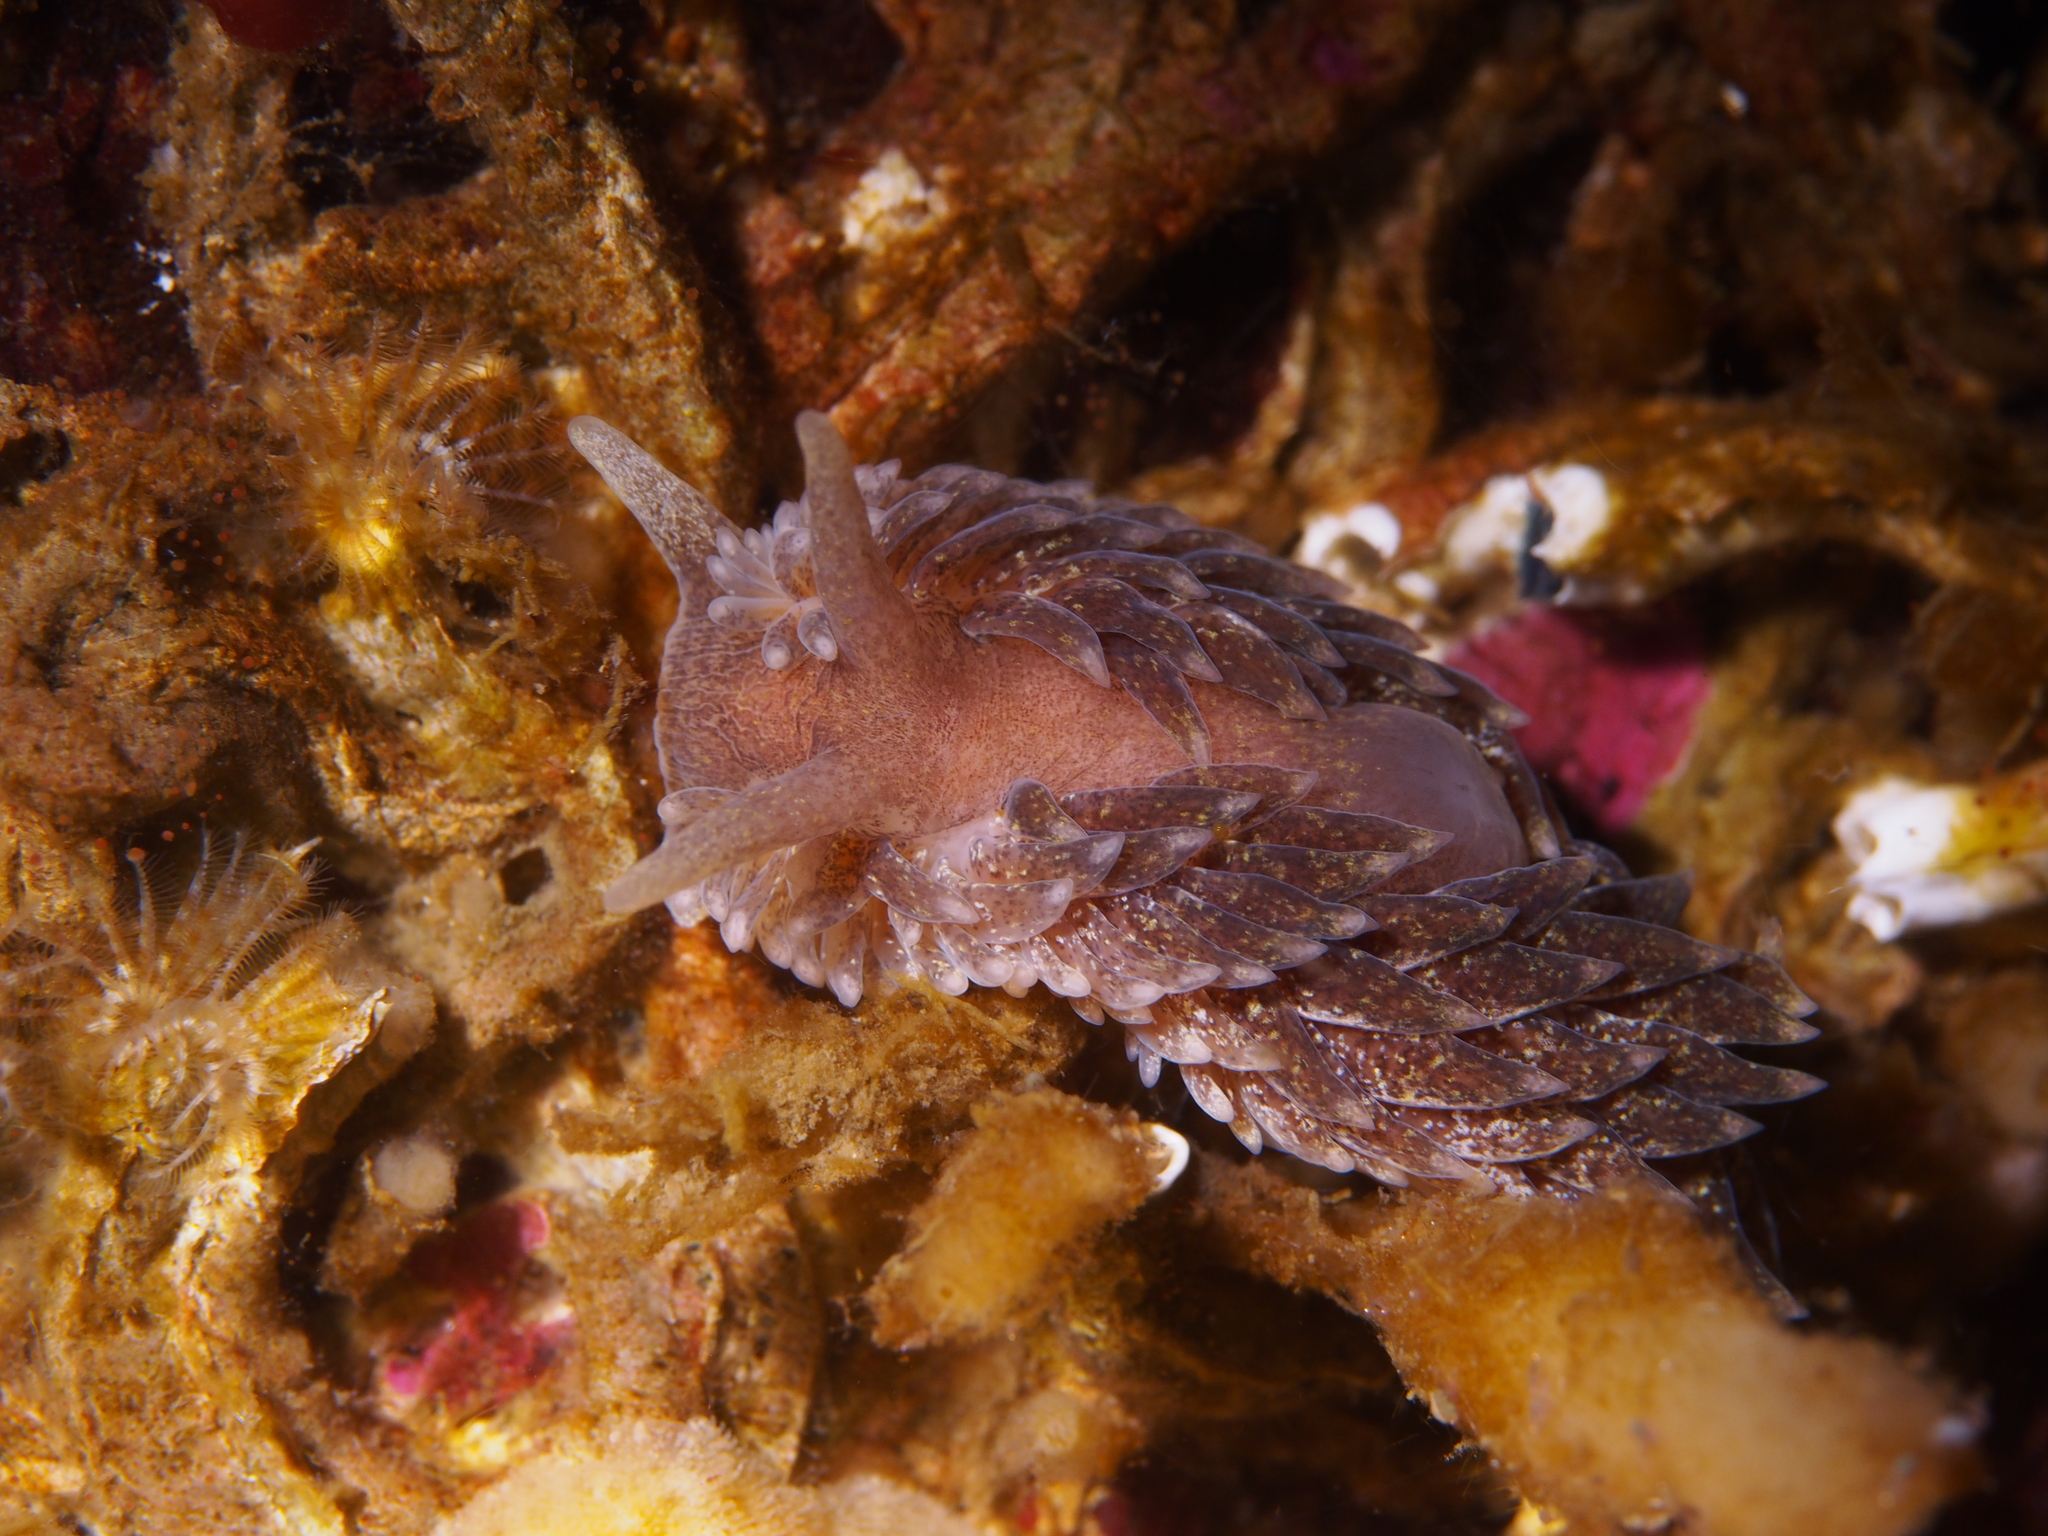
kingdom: Animalia
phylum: Mollusca
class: Gastropoda
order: Nudibranchia
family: Aeolidiidae
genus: Aeolidia
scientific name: Aeolidia papillosa
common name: Common grey sea slug
